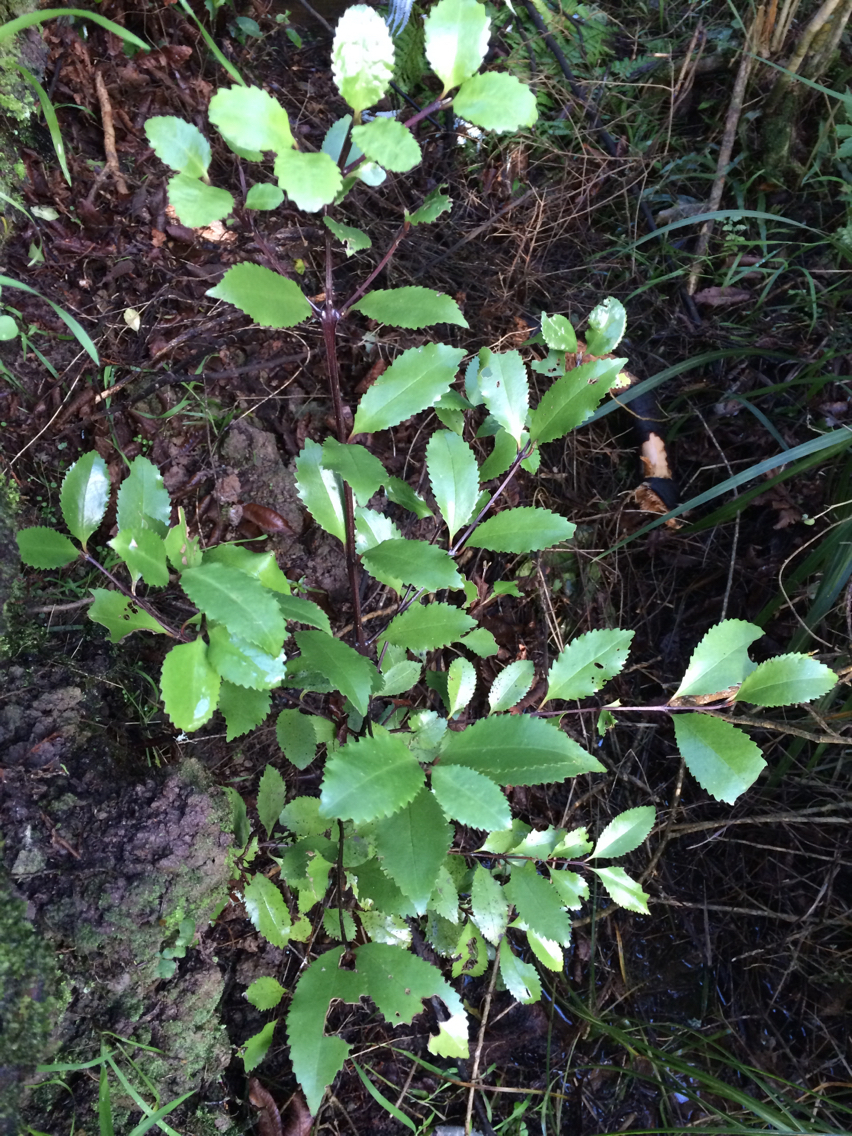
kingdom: Plantae
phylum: Tracheophyta
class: Magnoliopsida
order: Laurales
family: Atherospermataceae
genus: Laurelia
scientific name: Laurelia novae-zelandiae
